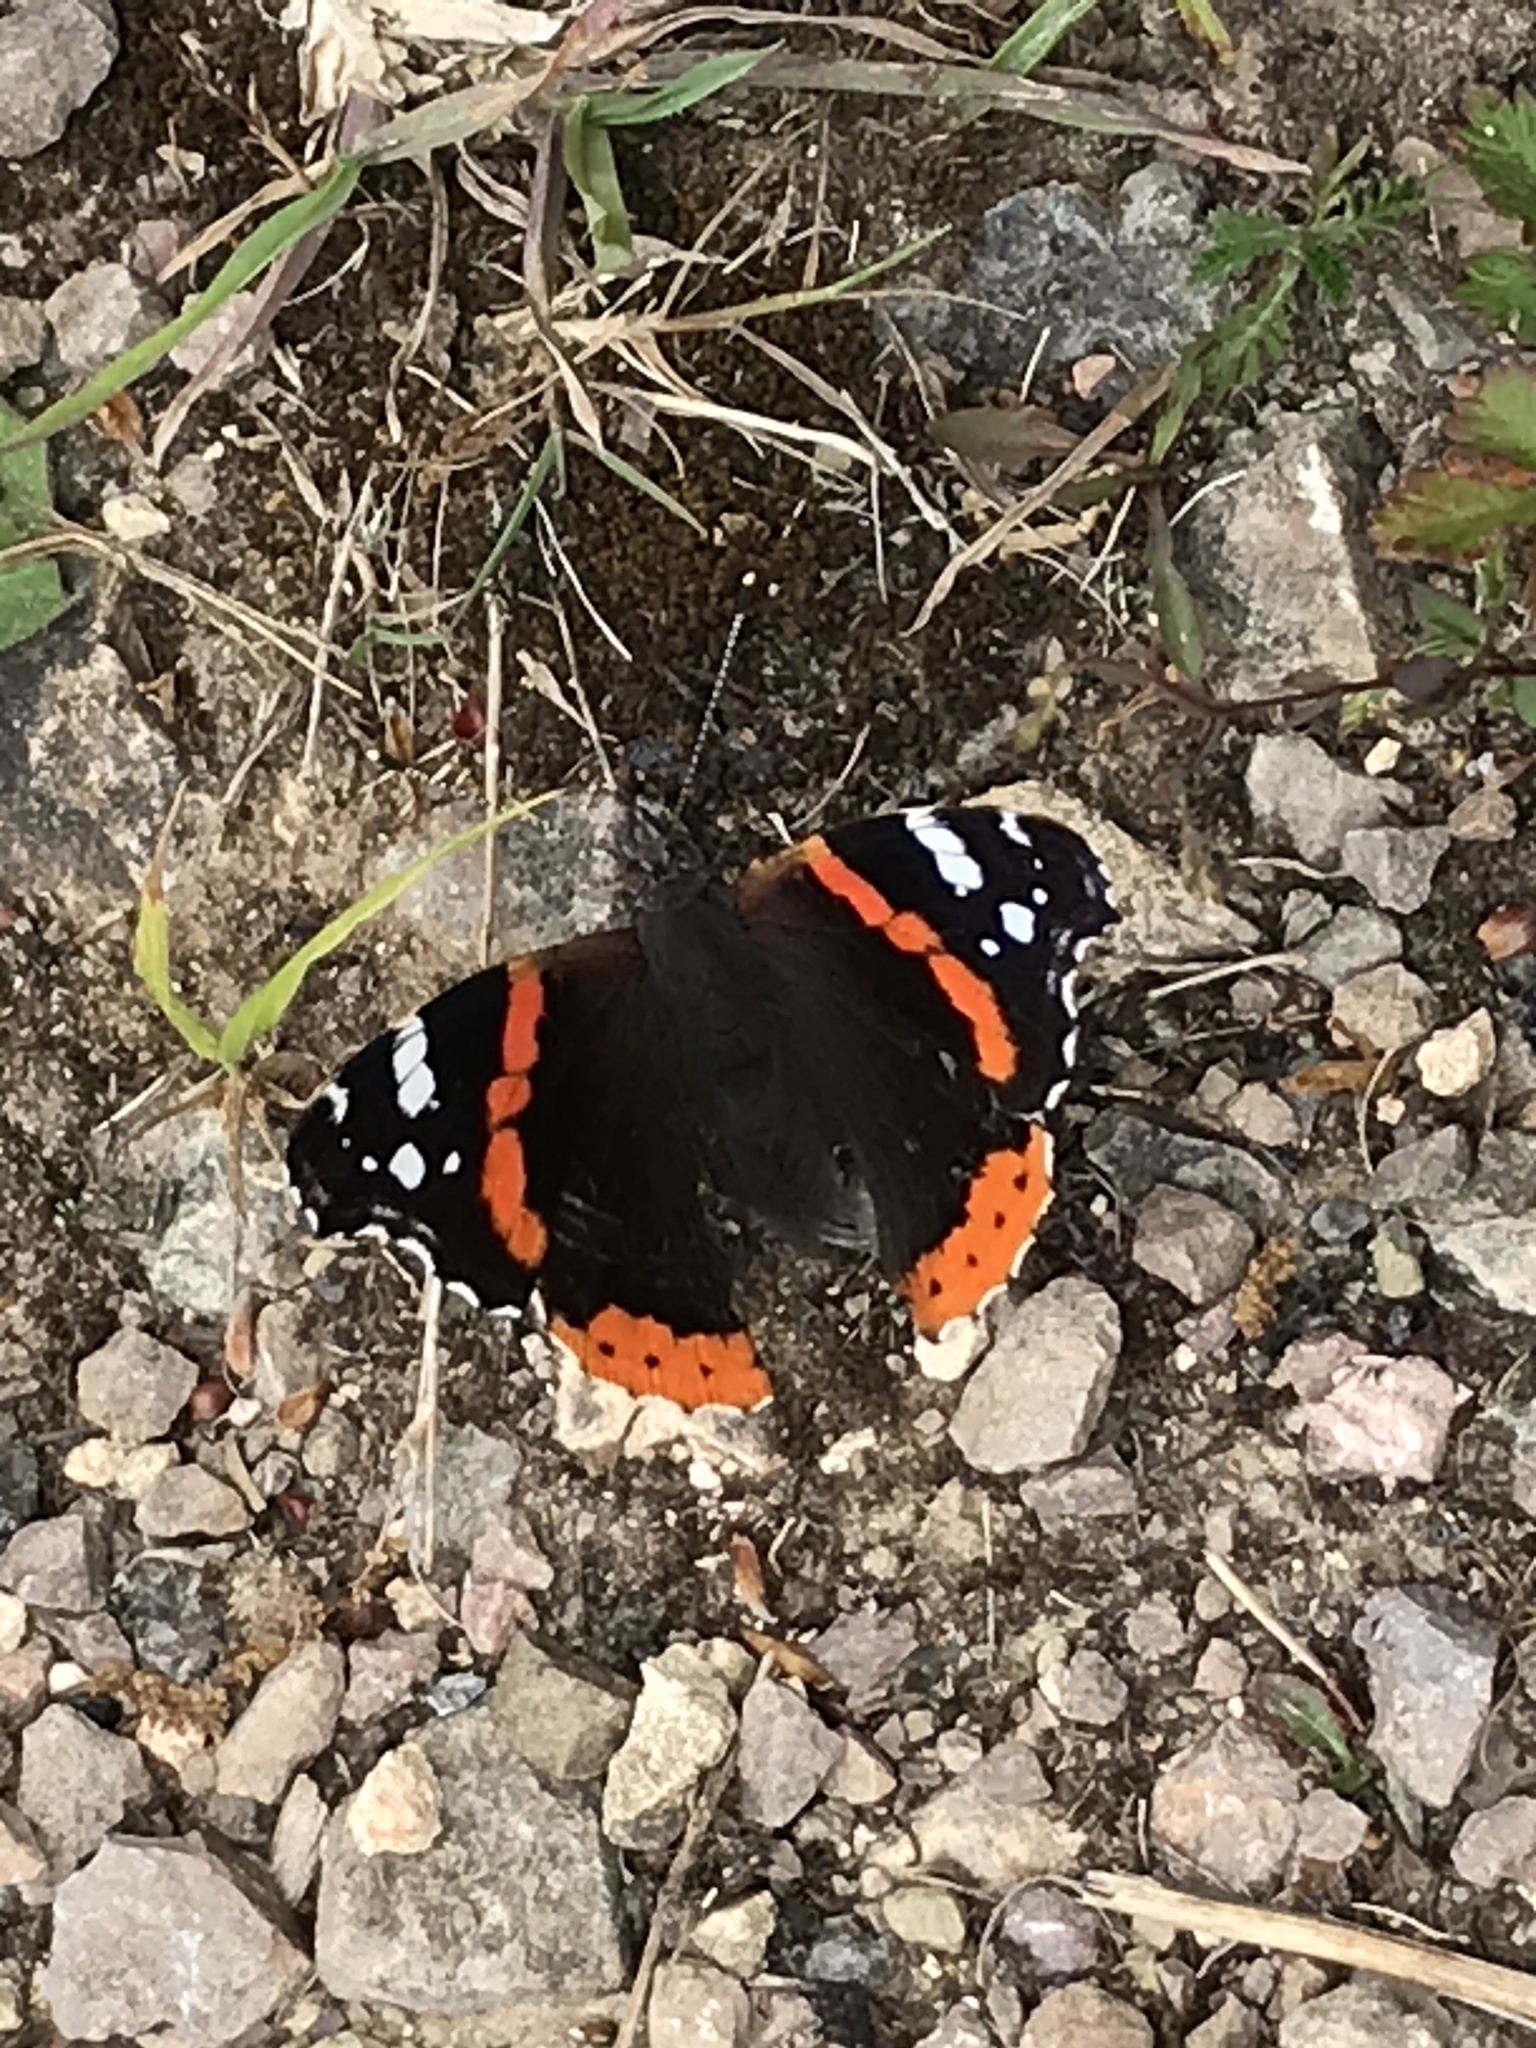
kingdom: Animalia
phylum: Arthropoda
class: Insecta
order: Lepidoptera
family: Nymphalidae
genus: Vanessa
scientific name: Vanessa atalanta
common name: Red admiral
